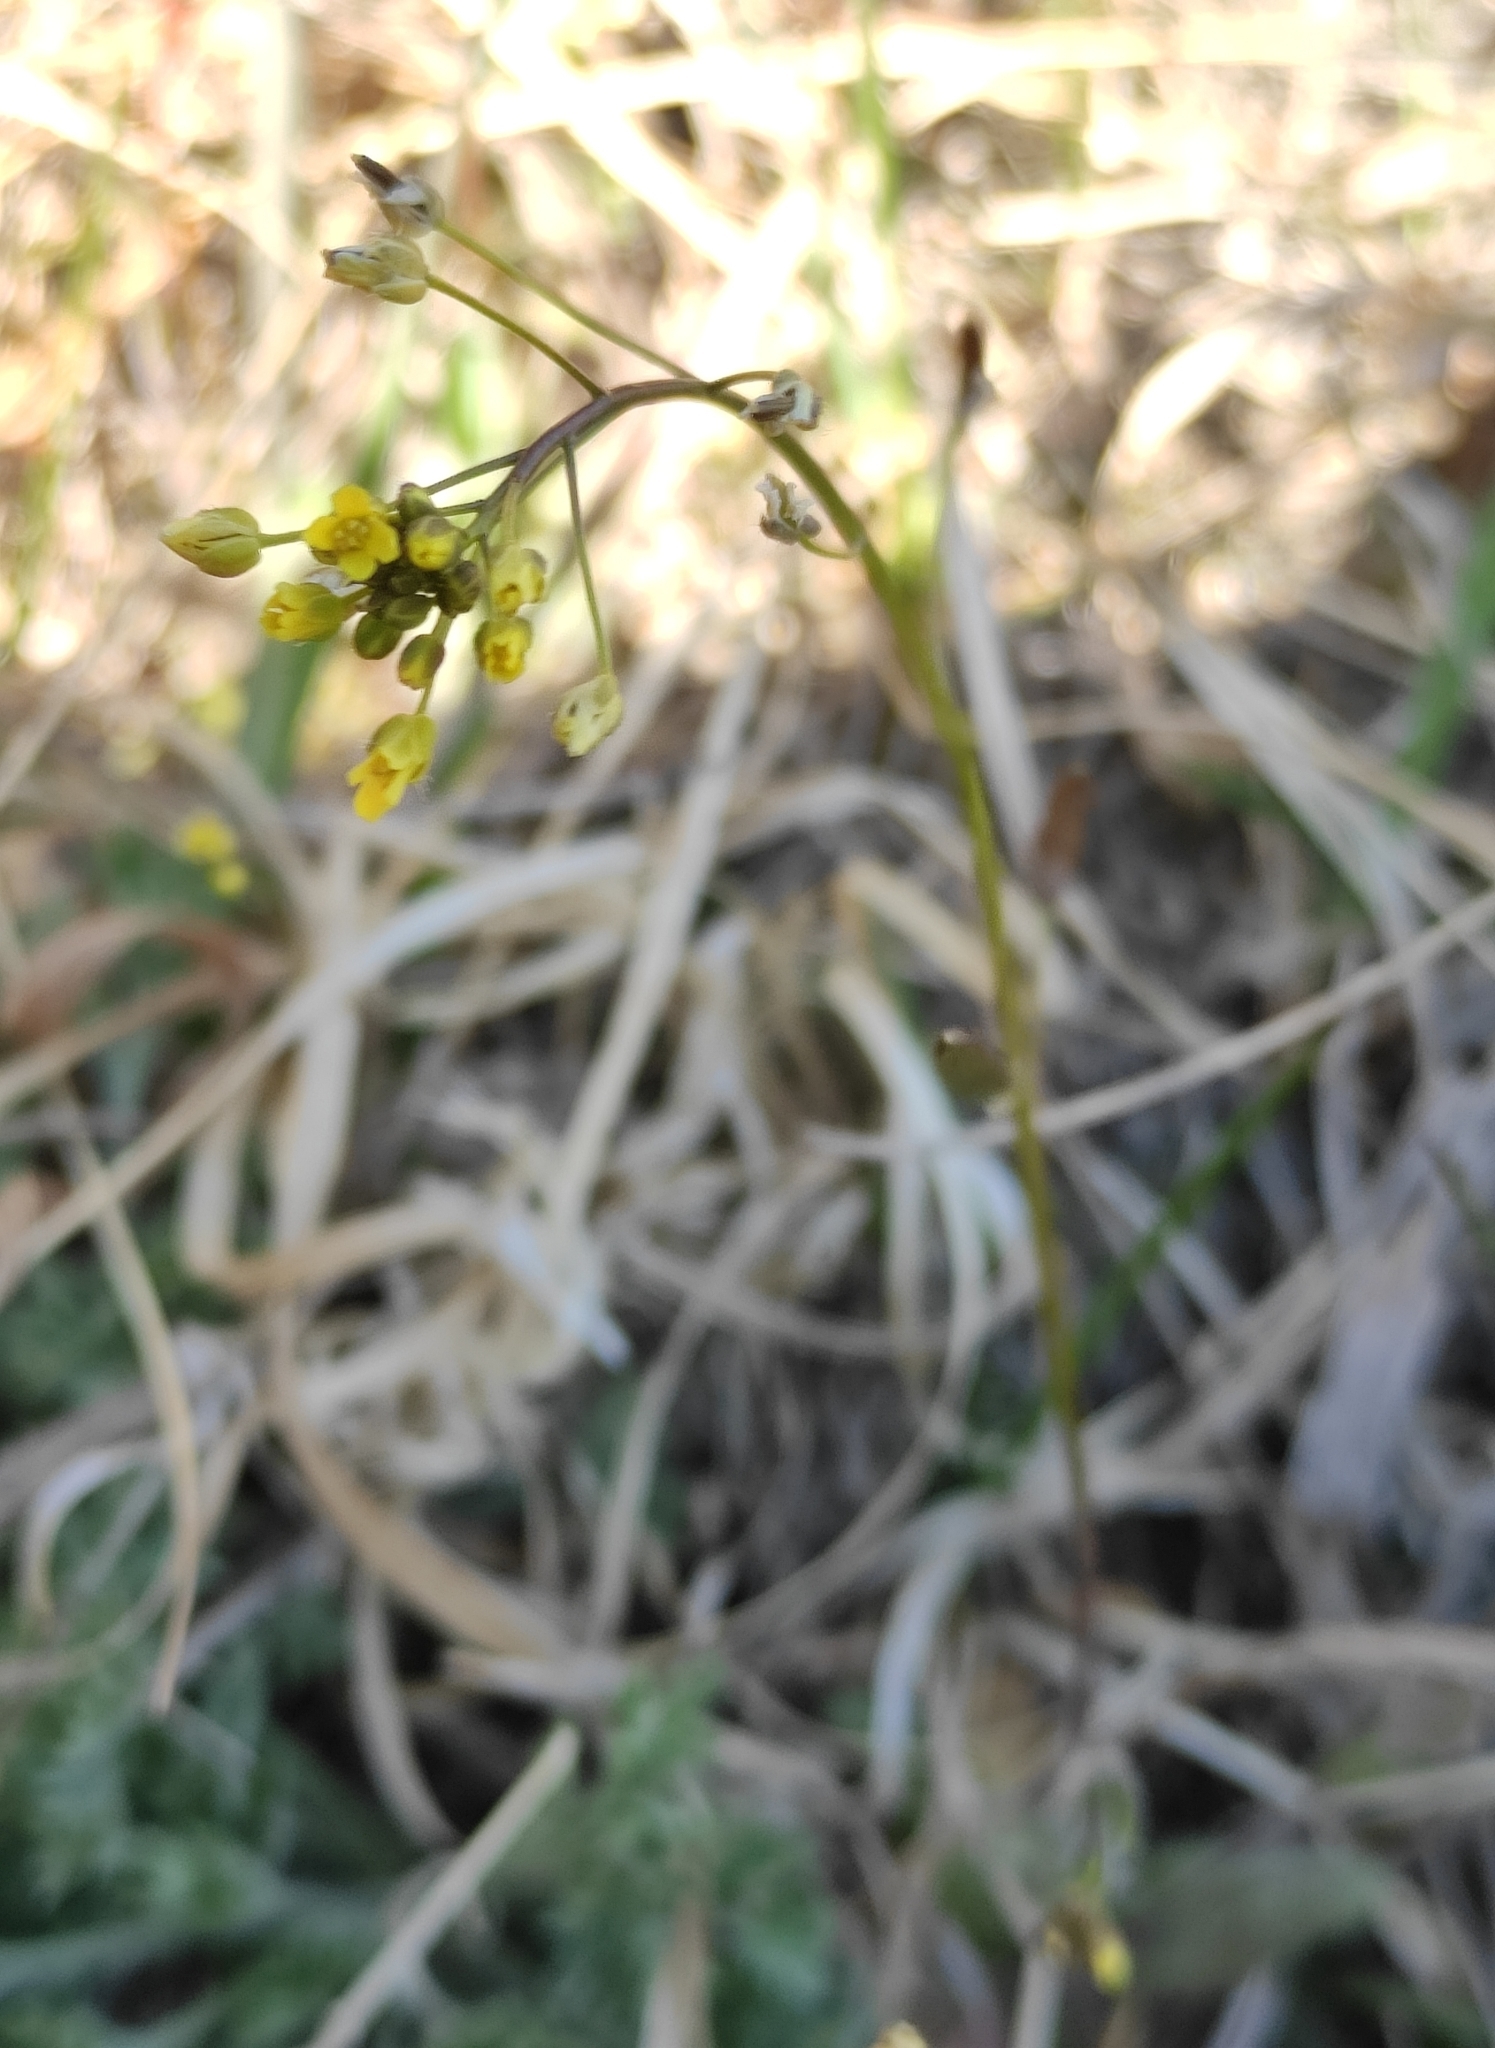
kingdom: Plantae
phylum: Tracheophyta
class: Magnoliopsida
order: Brassicales
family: Brassicaceae
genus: Draba
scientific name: Draba nemorosa
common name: Wood whitlow-grass
